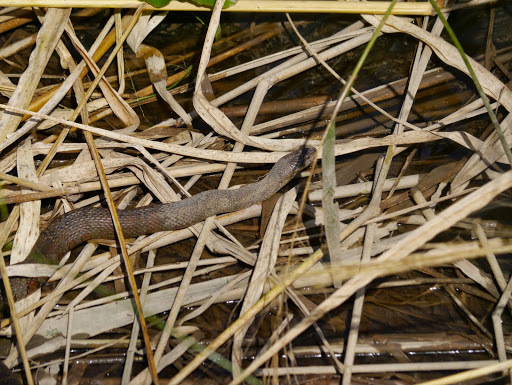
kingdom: Animalia
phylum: Chordata
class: Squamata
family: Colubridae
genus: Nerodia
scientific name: Nerodia sipedon
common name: Northern water snake
